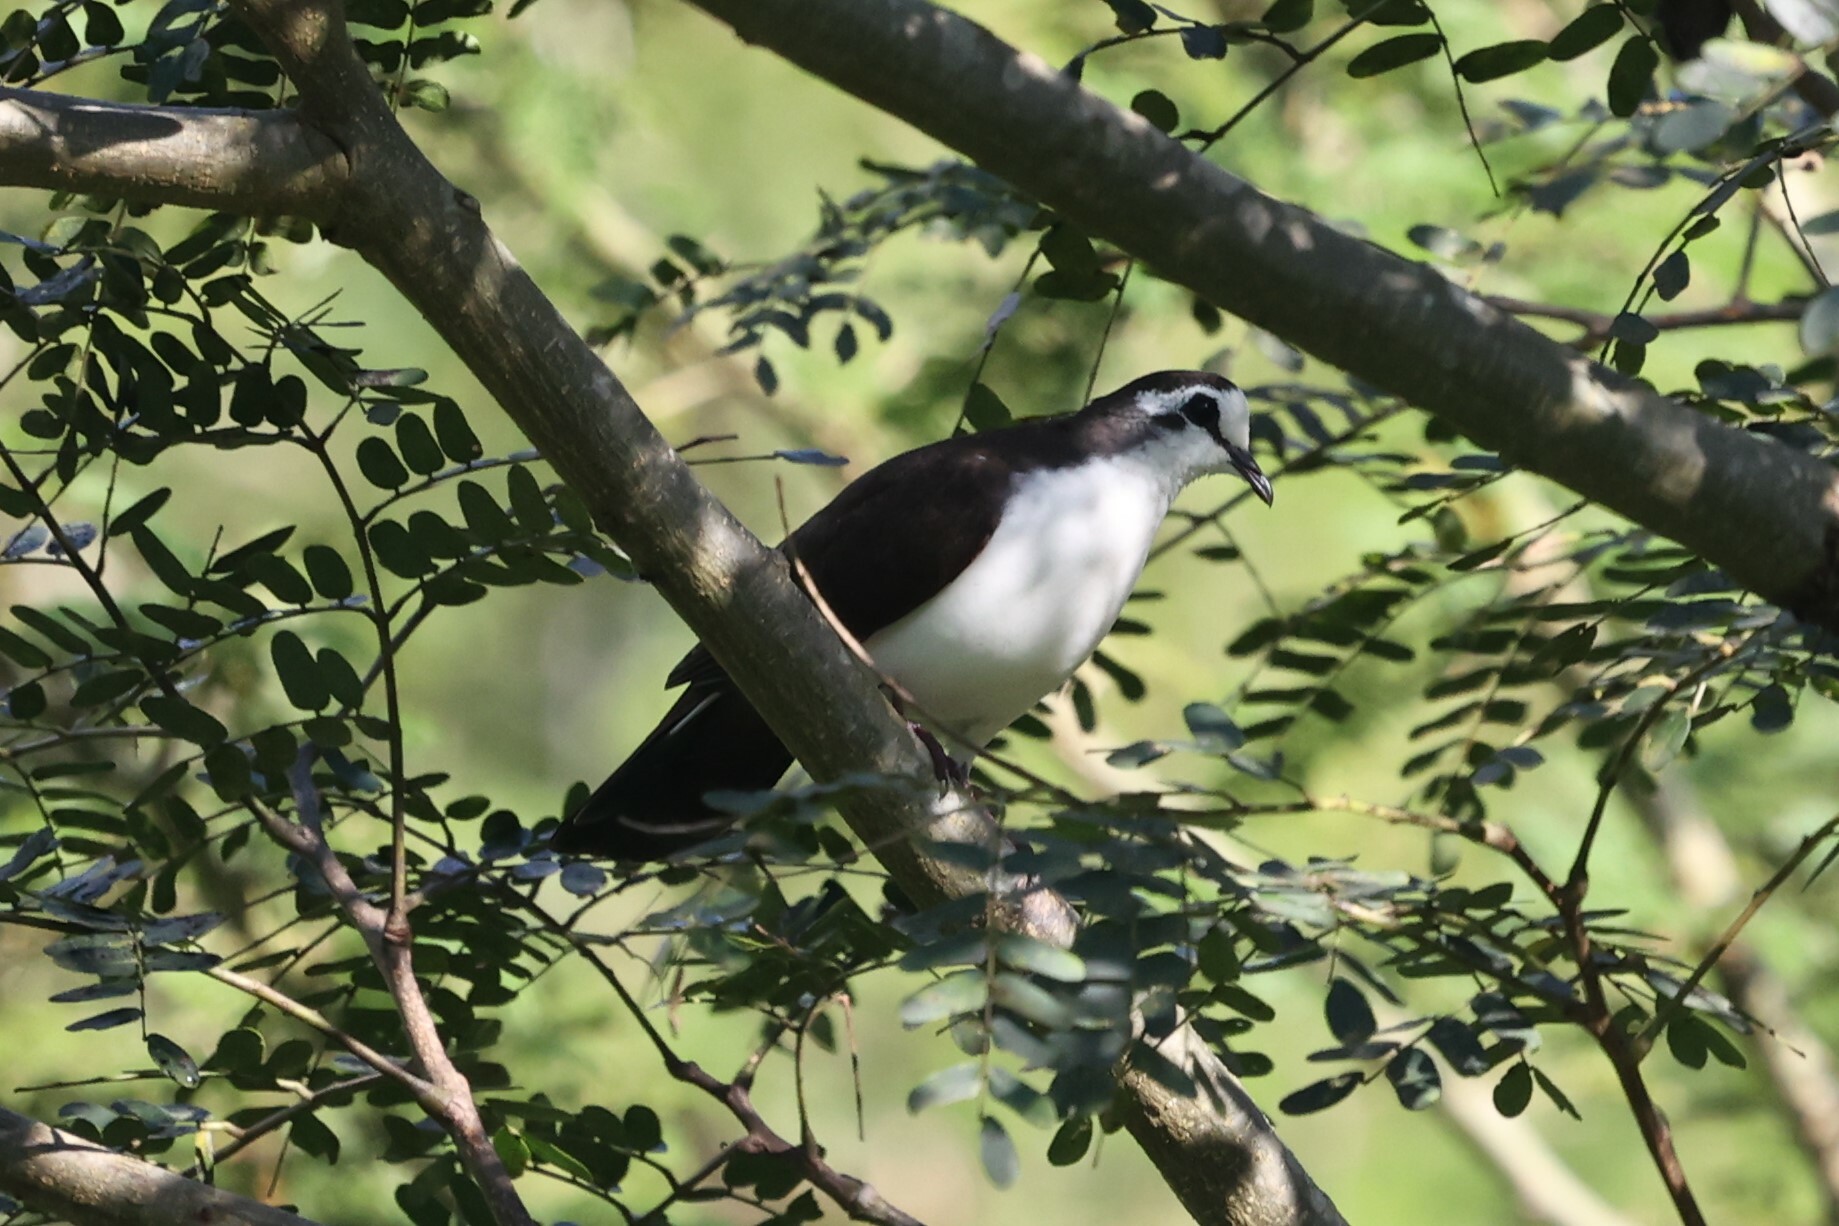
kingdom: Animalia
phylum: Chordata
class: Aves
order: Columbiformes
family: Columbidae
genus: Turtur
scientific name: Turtur tympanistria
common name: Tambourine dove
